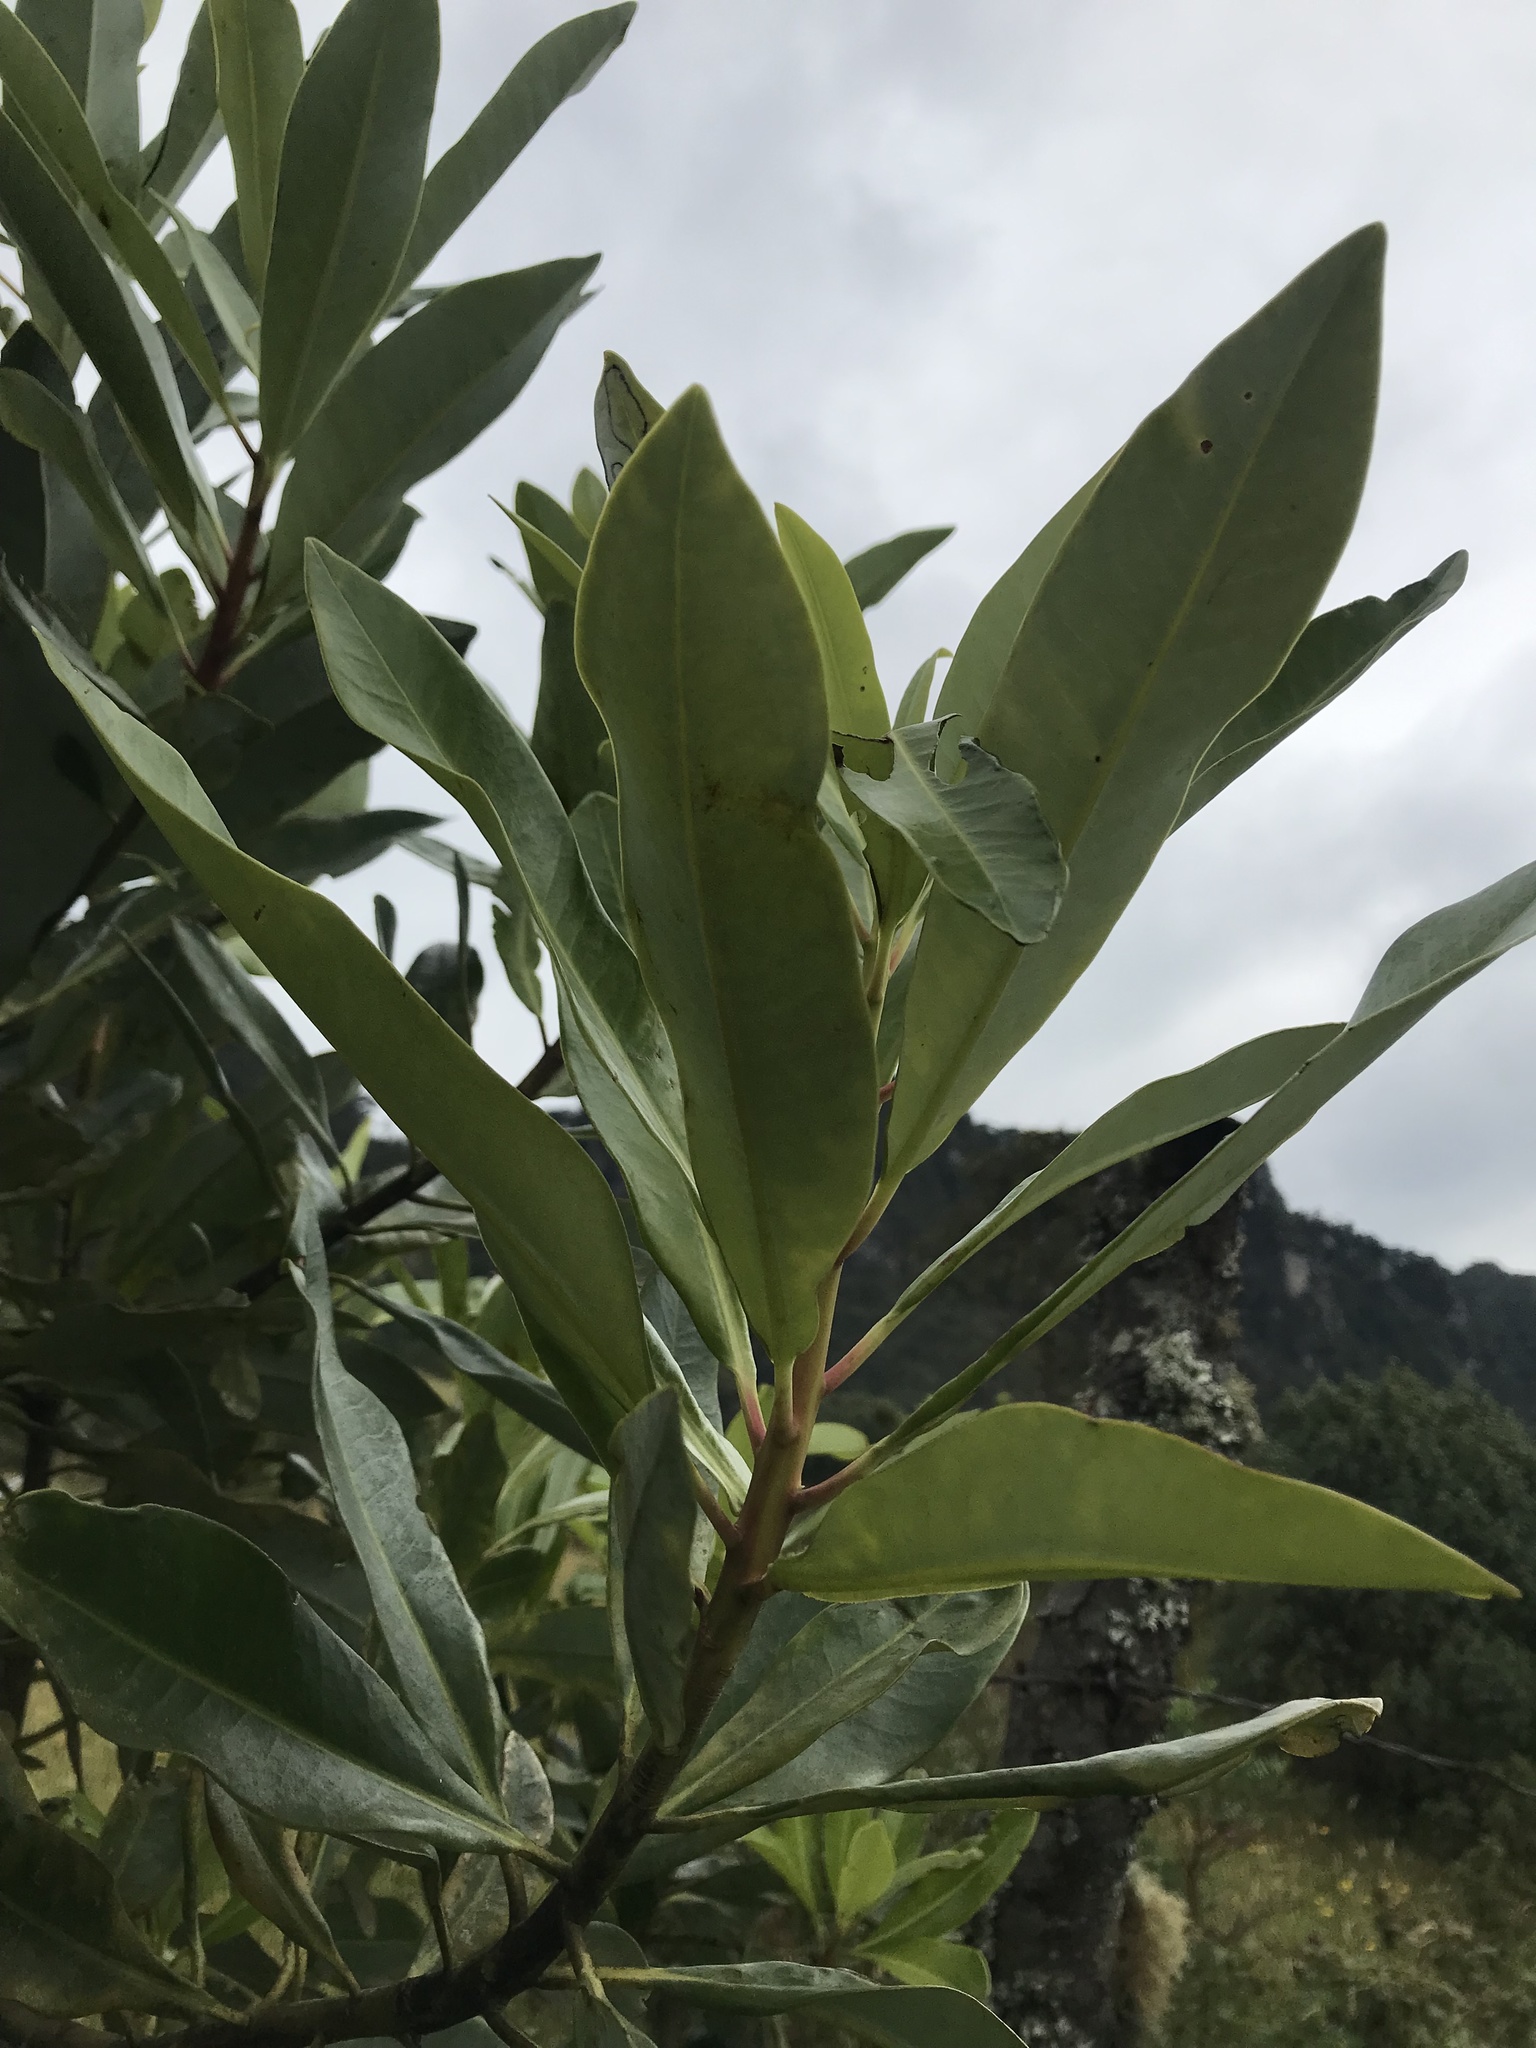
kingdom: Plantae
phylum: Tracheophyta
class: Magnoliopsida
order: Canellales
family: Winteraceae
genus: Drimys
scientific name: Drimys granadensis
